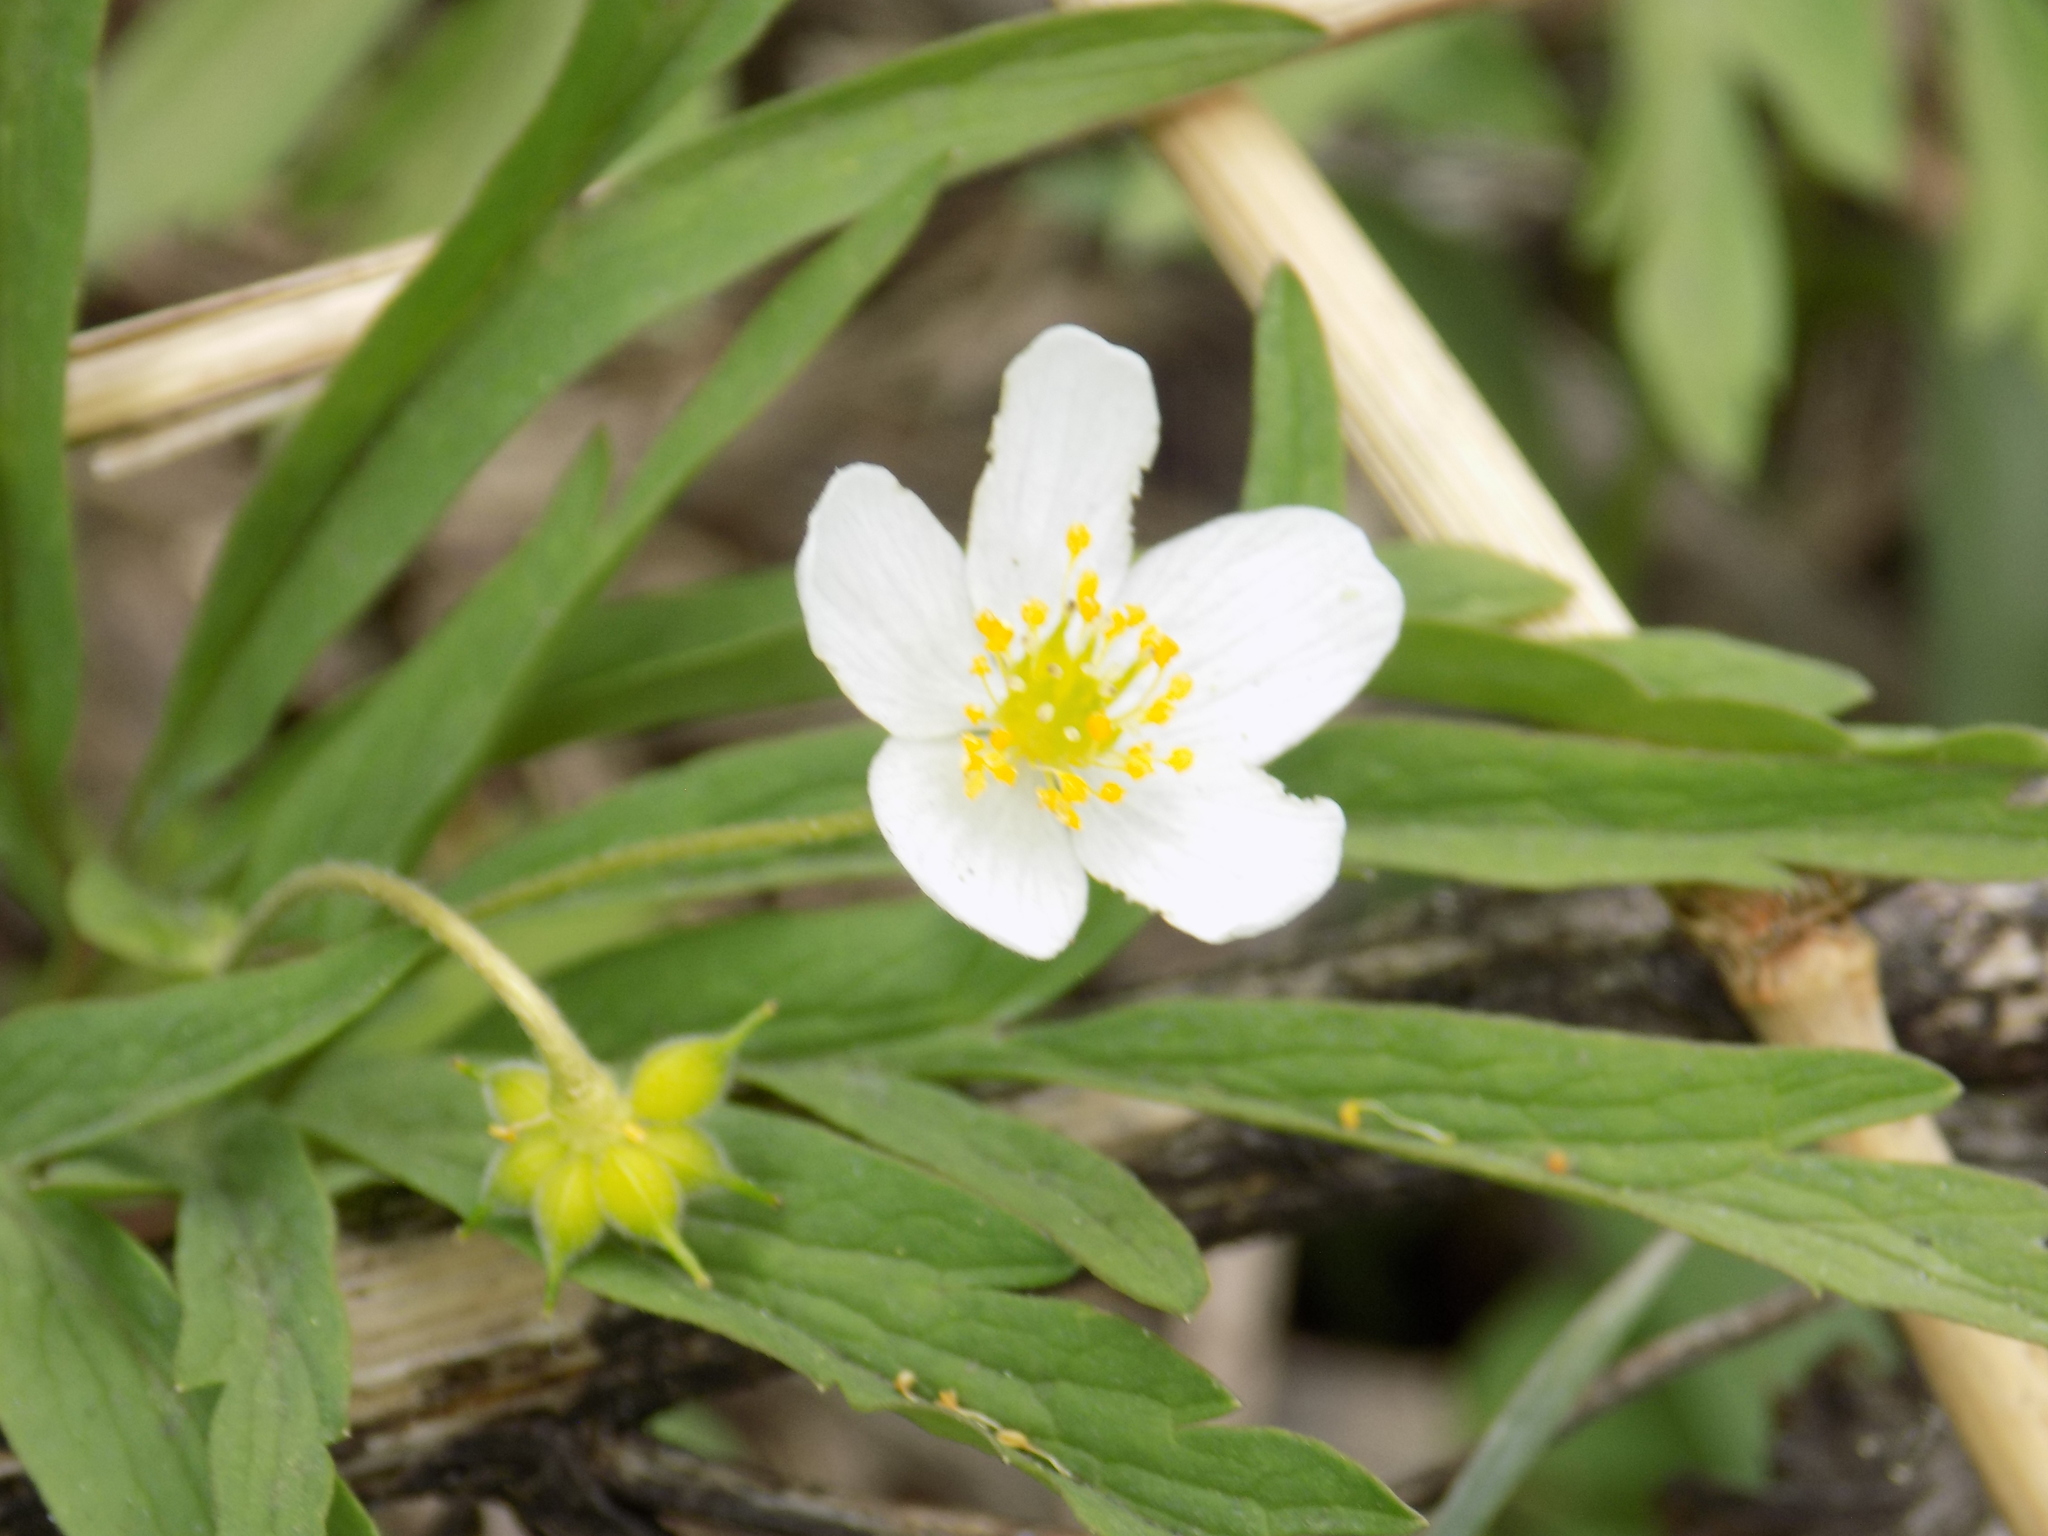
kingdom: Plantae
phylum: Tracheophyta
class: Magnoliopsida
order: Ranunculales
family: Ranunculaceae
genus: Anemone
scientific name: Anemone caerulea
